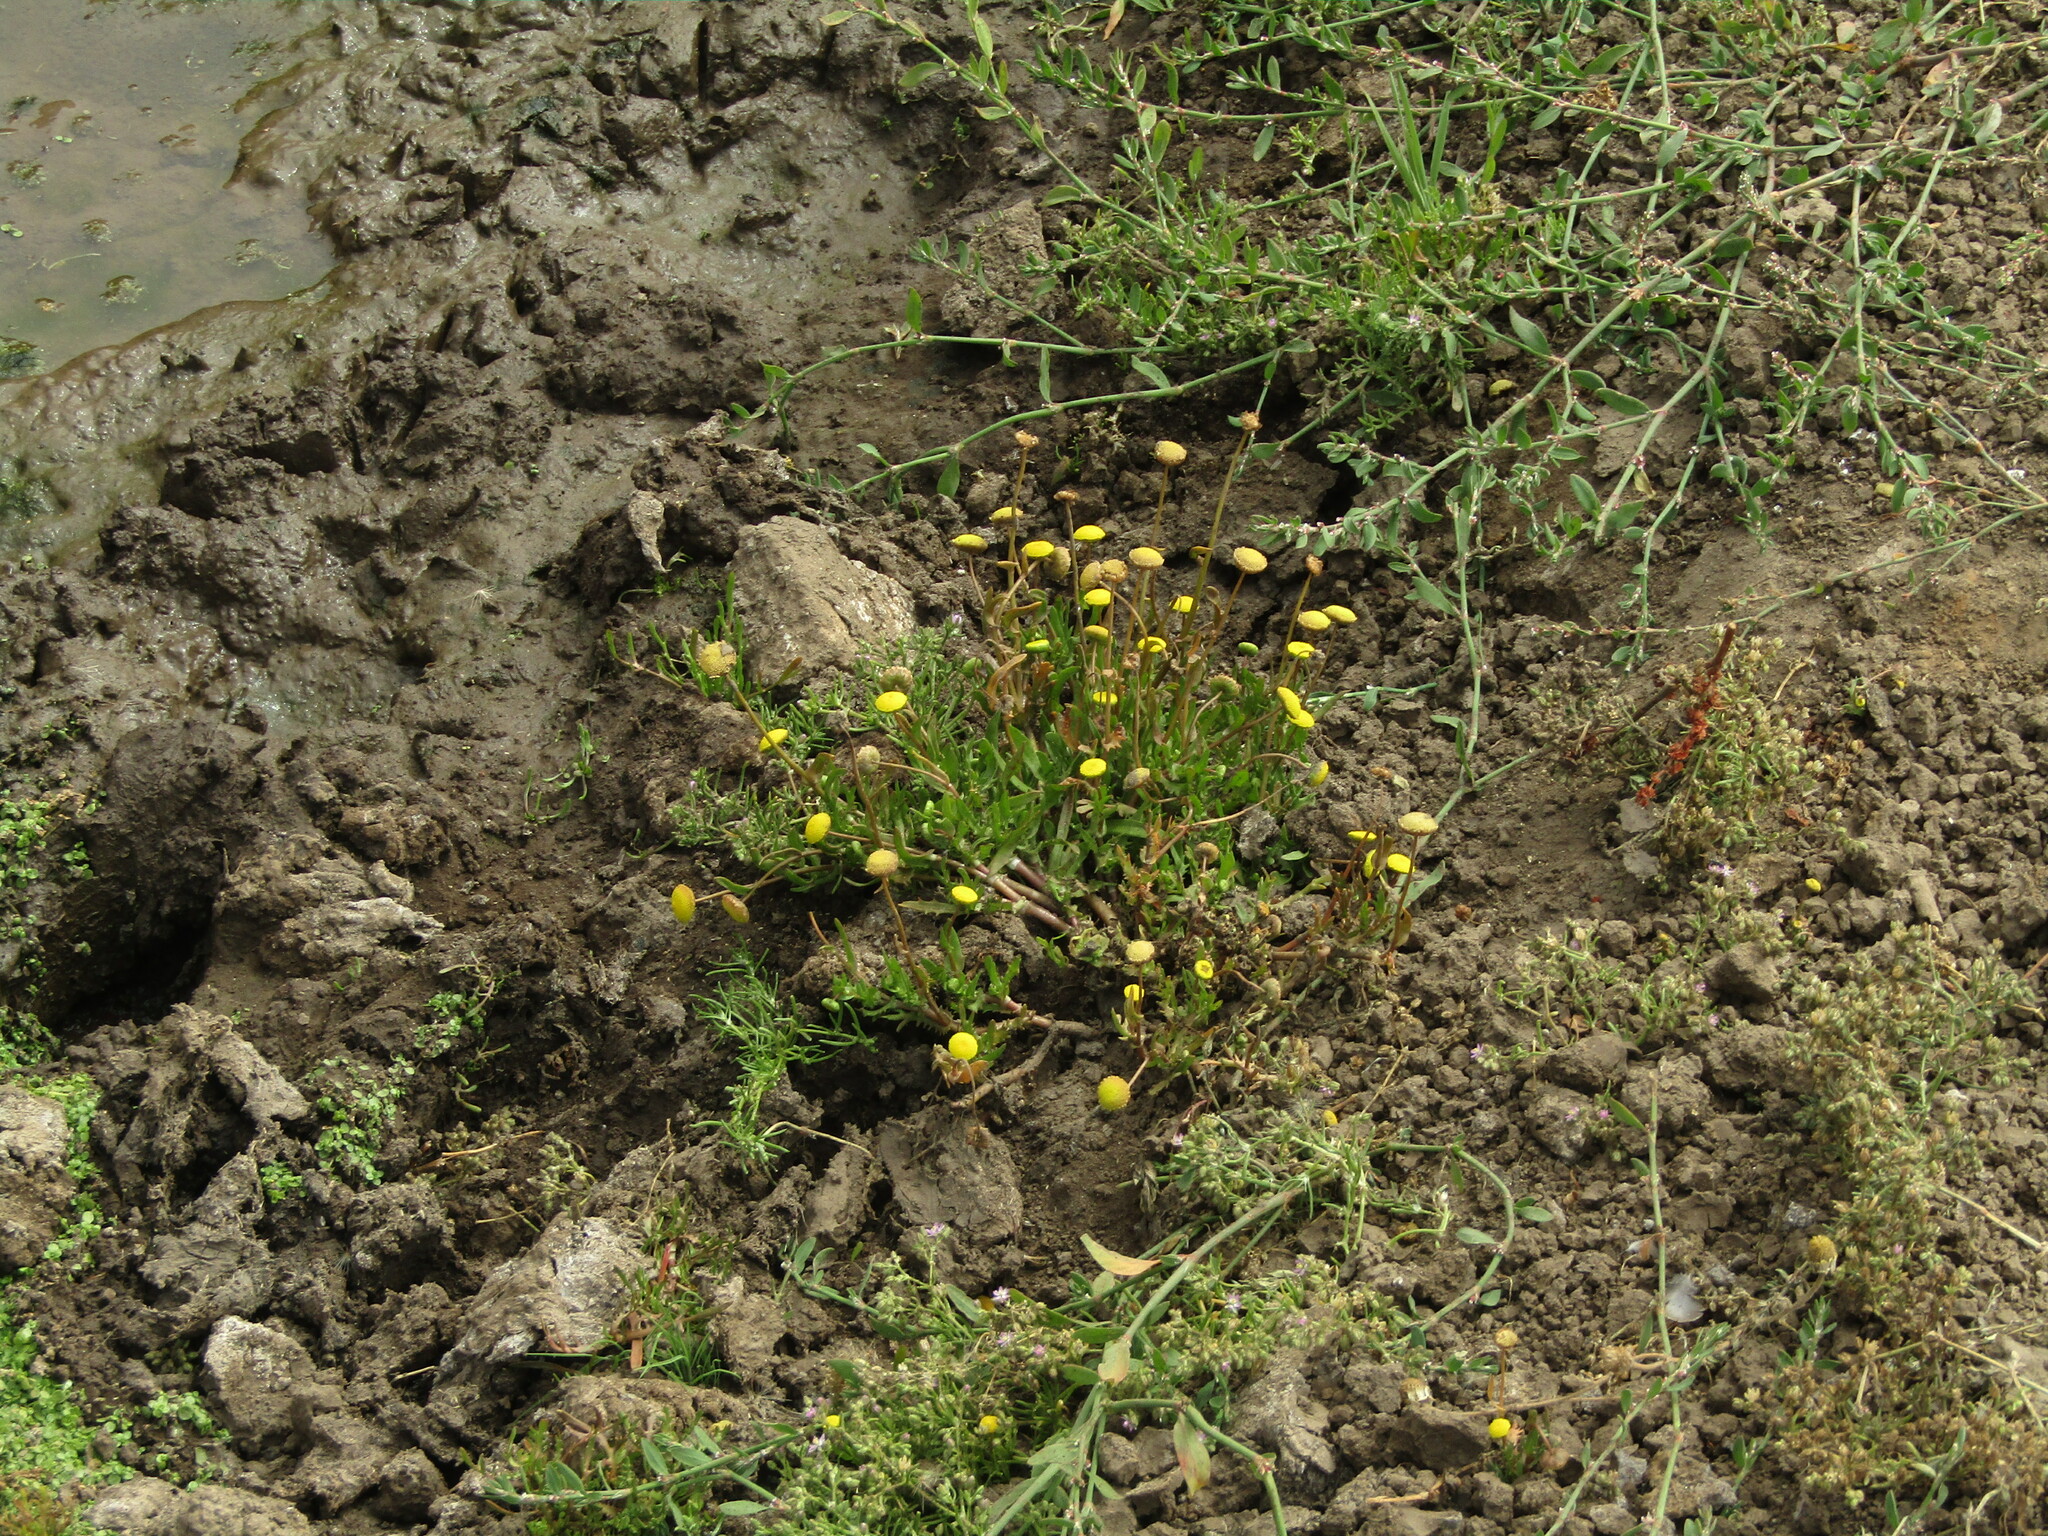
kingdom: Plantae
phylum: Tracheophyta
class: Magnoliopsida
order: Asterales
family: Asteraceae
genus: Cotula
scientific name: Cotula coronopifolia
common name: Buttonweed
